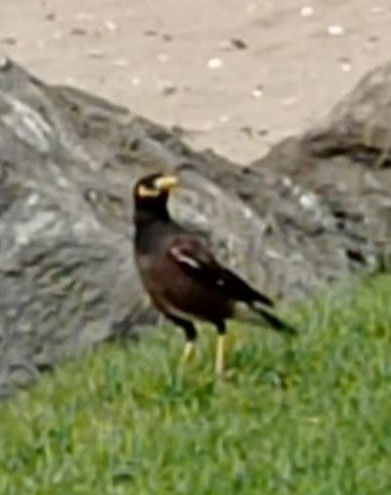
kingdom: Animalia
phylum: Chordata
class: Aves
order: Passeriformes
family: Sturnidae
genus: Acridotheres
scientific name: Acridotheres tristis
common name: Common myna
